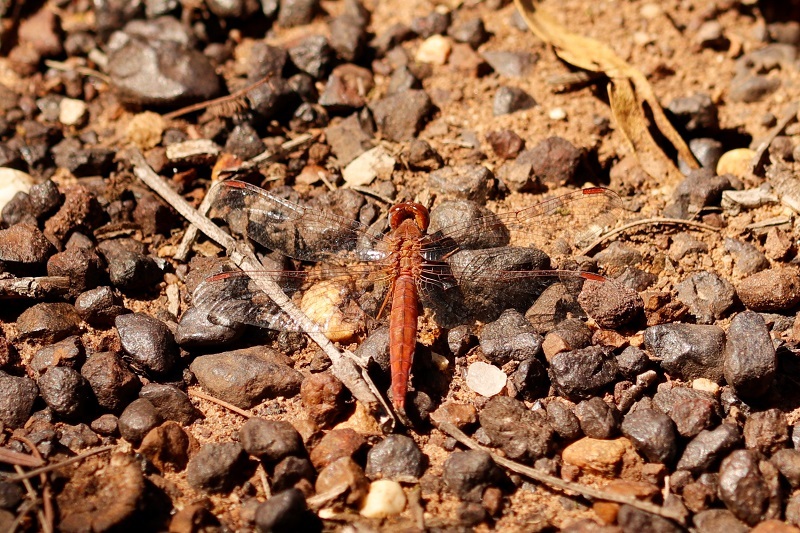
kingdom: Animalia
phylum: Arthropoda
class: Insecta
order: Odonata
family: Libellulidae
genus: Crocothemis
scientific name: Crocothemis sanguinolenta
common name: Little scarlet
